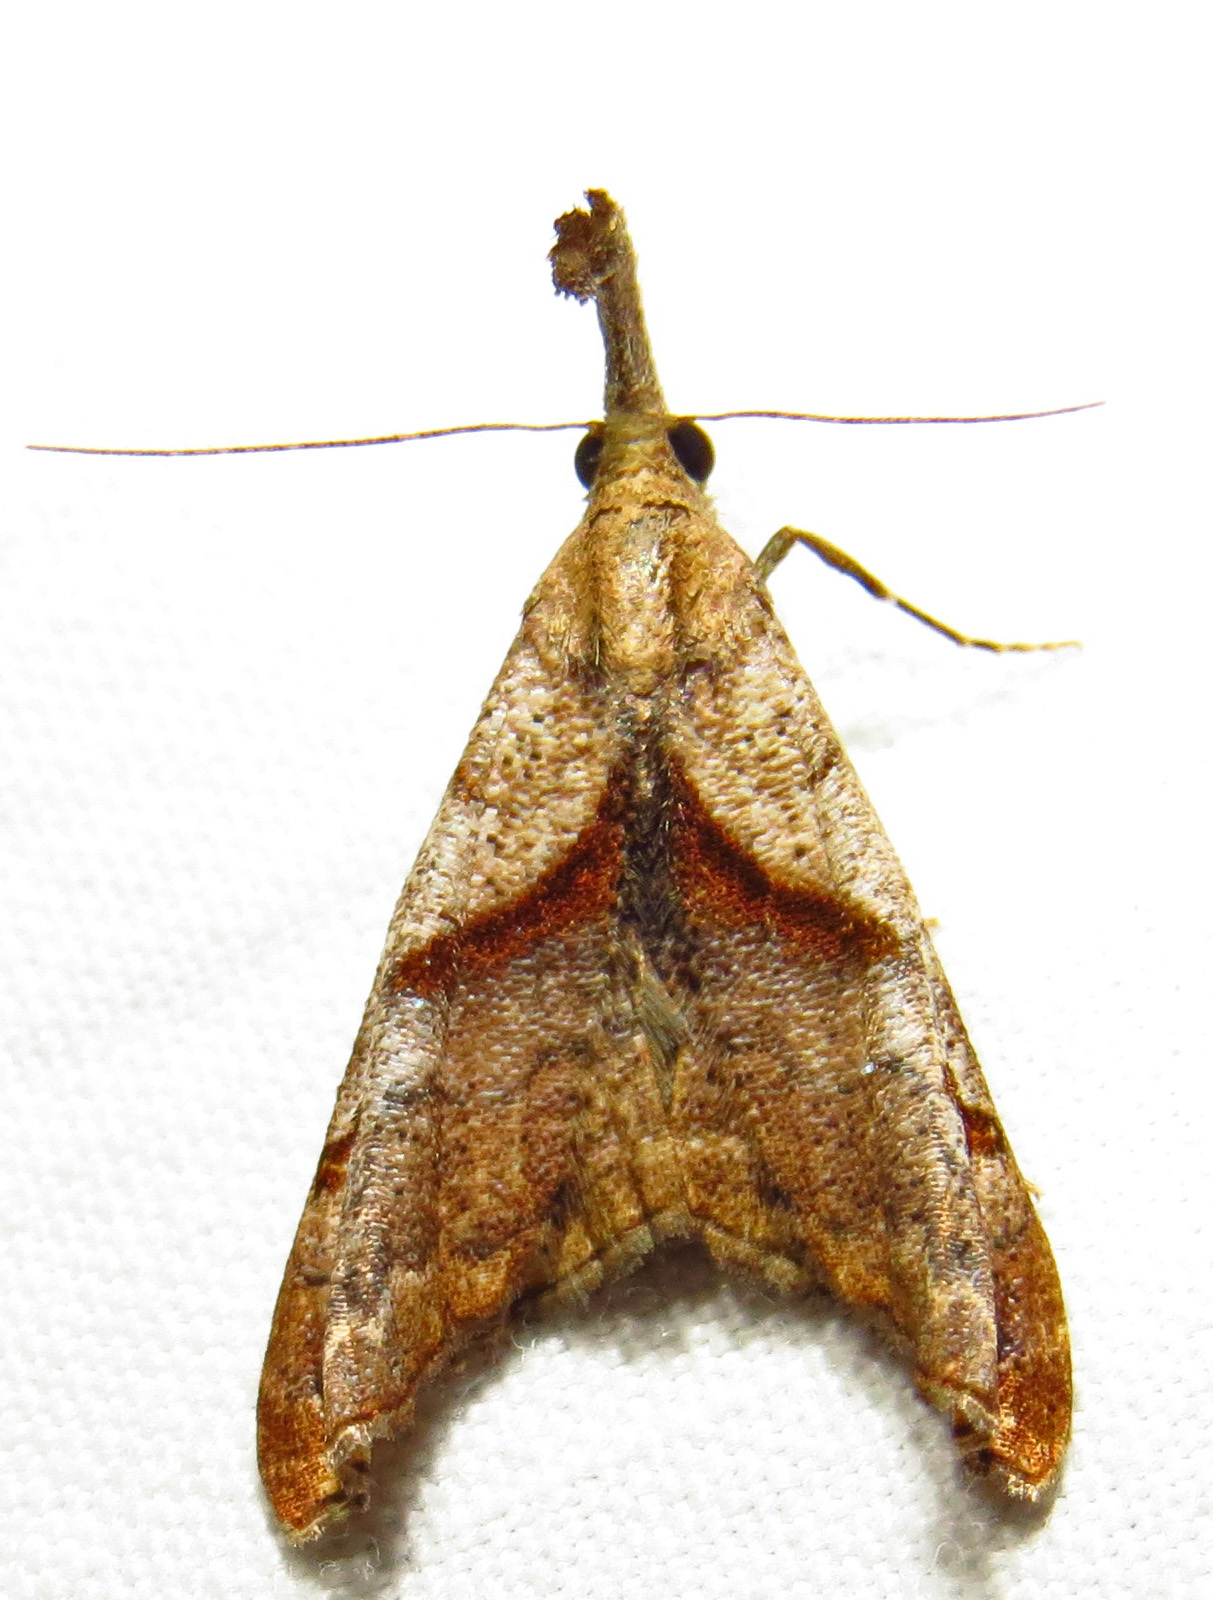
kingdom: Animalia
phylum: Arthropoda
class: Insecta
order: Lepidoptera
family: Erebidae
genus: Palthis
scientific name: Palthis angulalis
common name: Dark-spotted palthis moth
